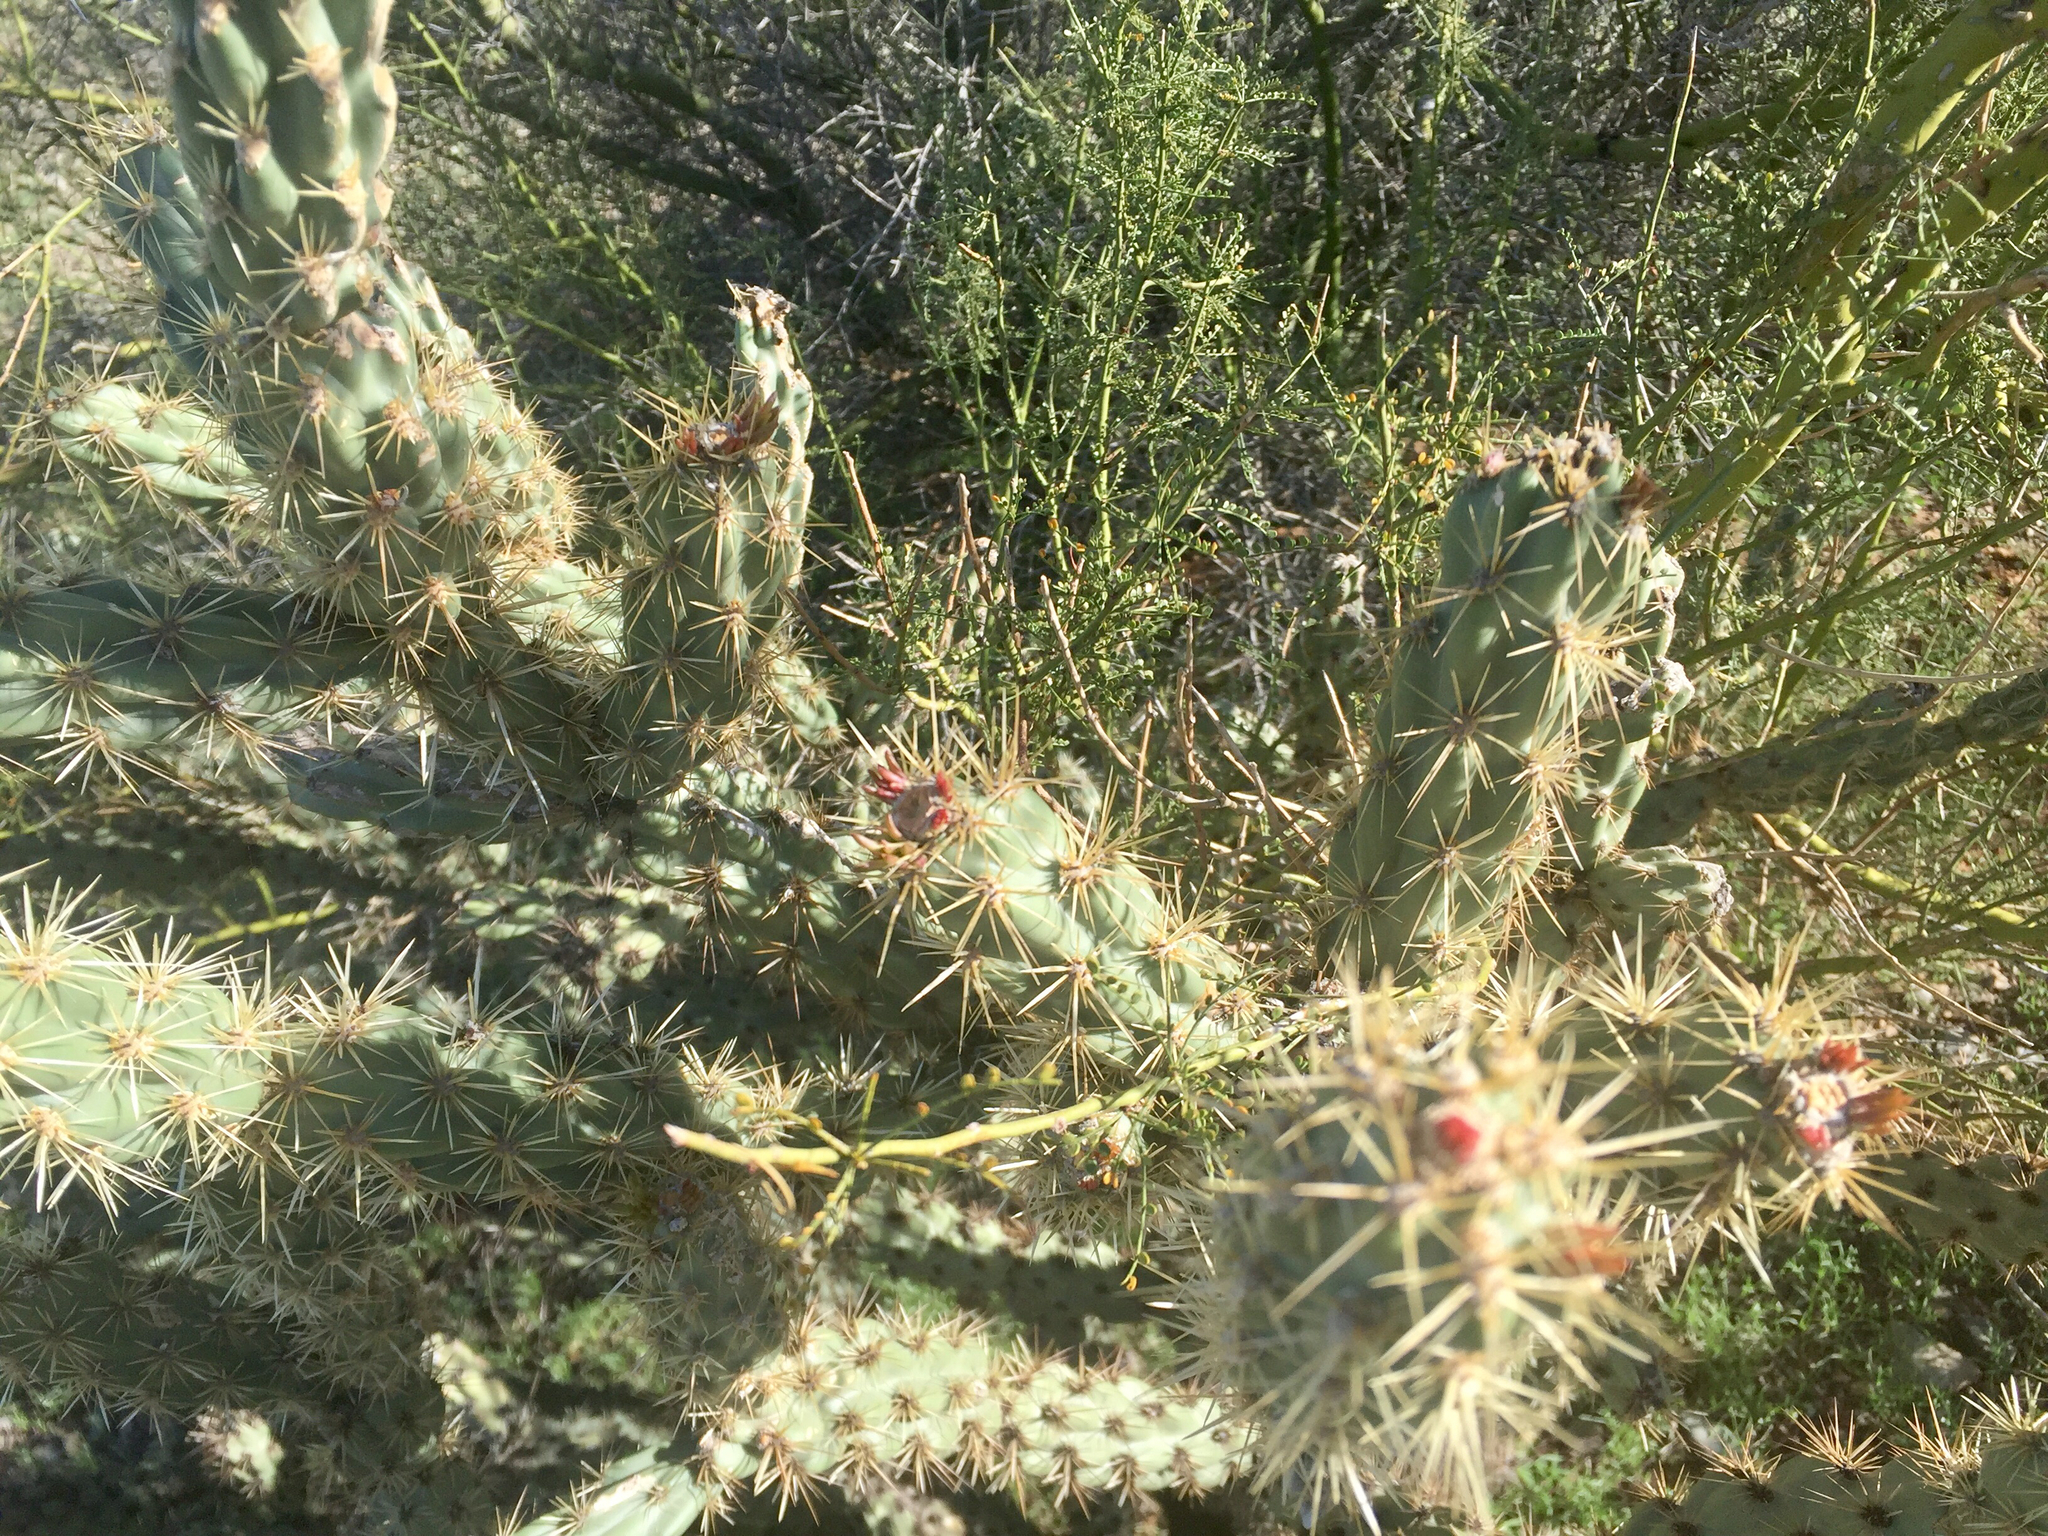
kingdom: Plantae
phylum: Tracheophyta
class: Magnoliopsida
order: Caryophyllales
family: Cactaceae
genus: Cylindropuntia
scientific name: Cylindropuntia acanthocarpa
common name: Buckhorn cholla
